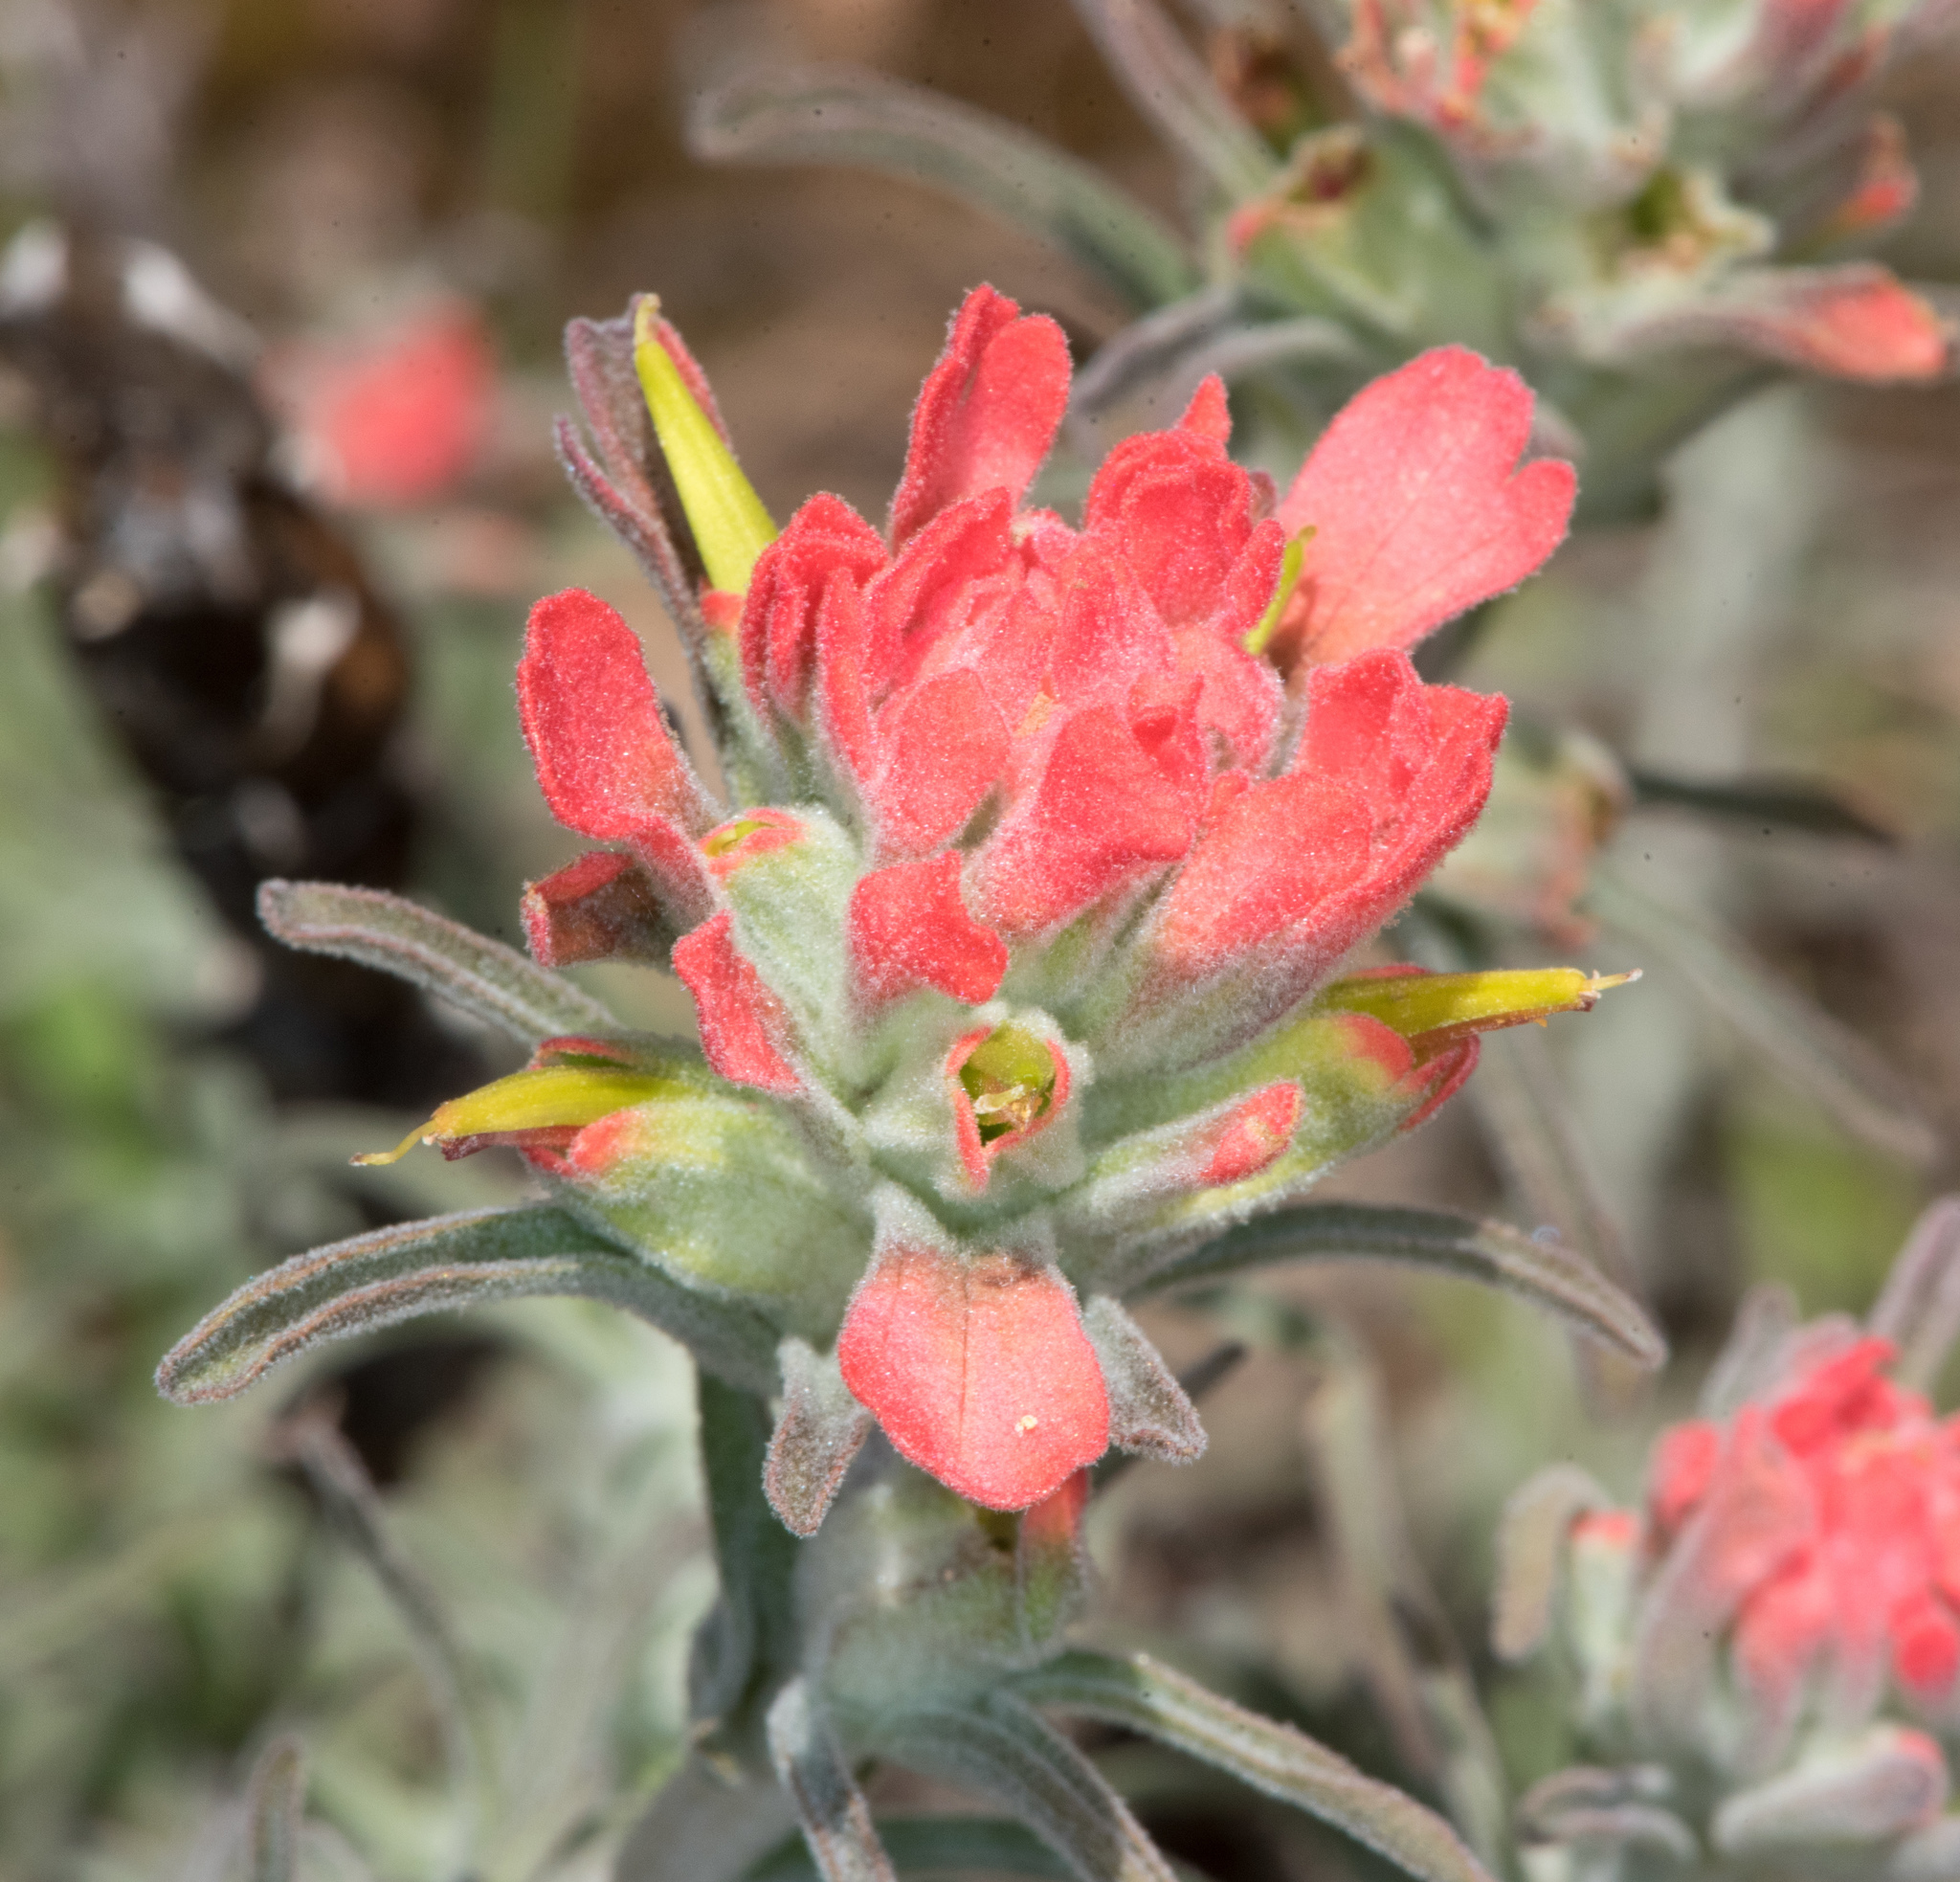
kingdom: Plantae
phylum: Tracheophyta
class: Magnoliopsida
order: Lamiales
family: Orobanchaceae
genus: Castilleja
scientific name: Castilleja foliolosa
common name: Woolly indian paintbrush
